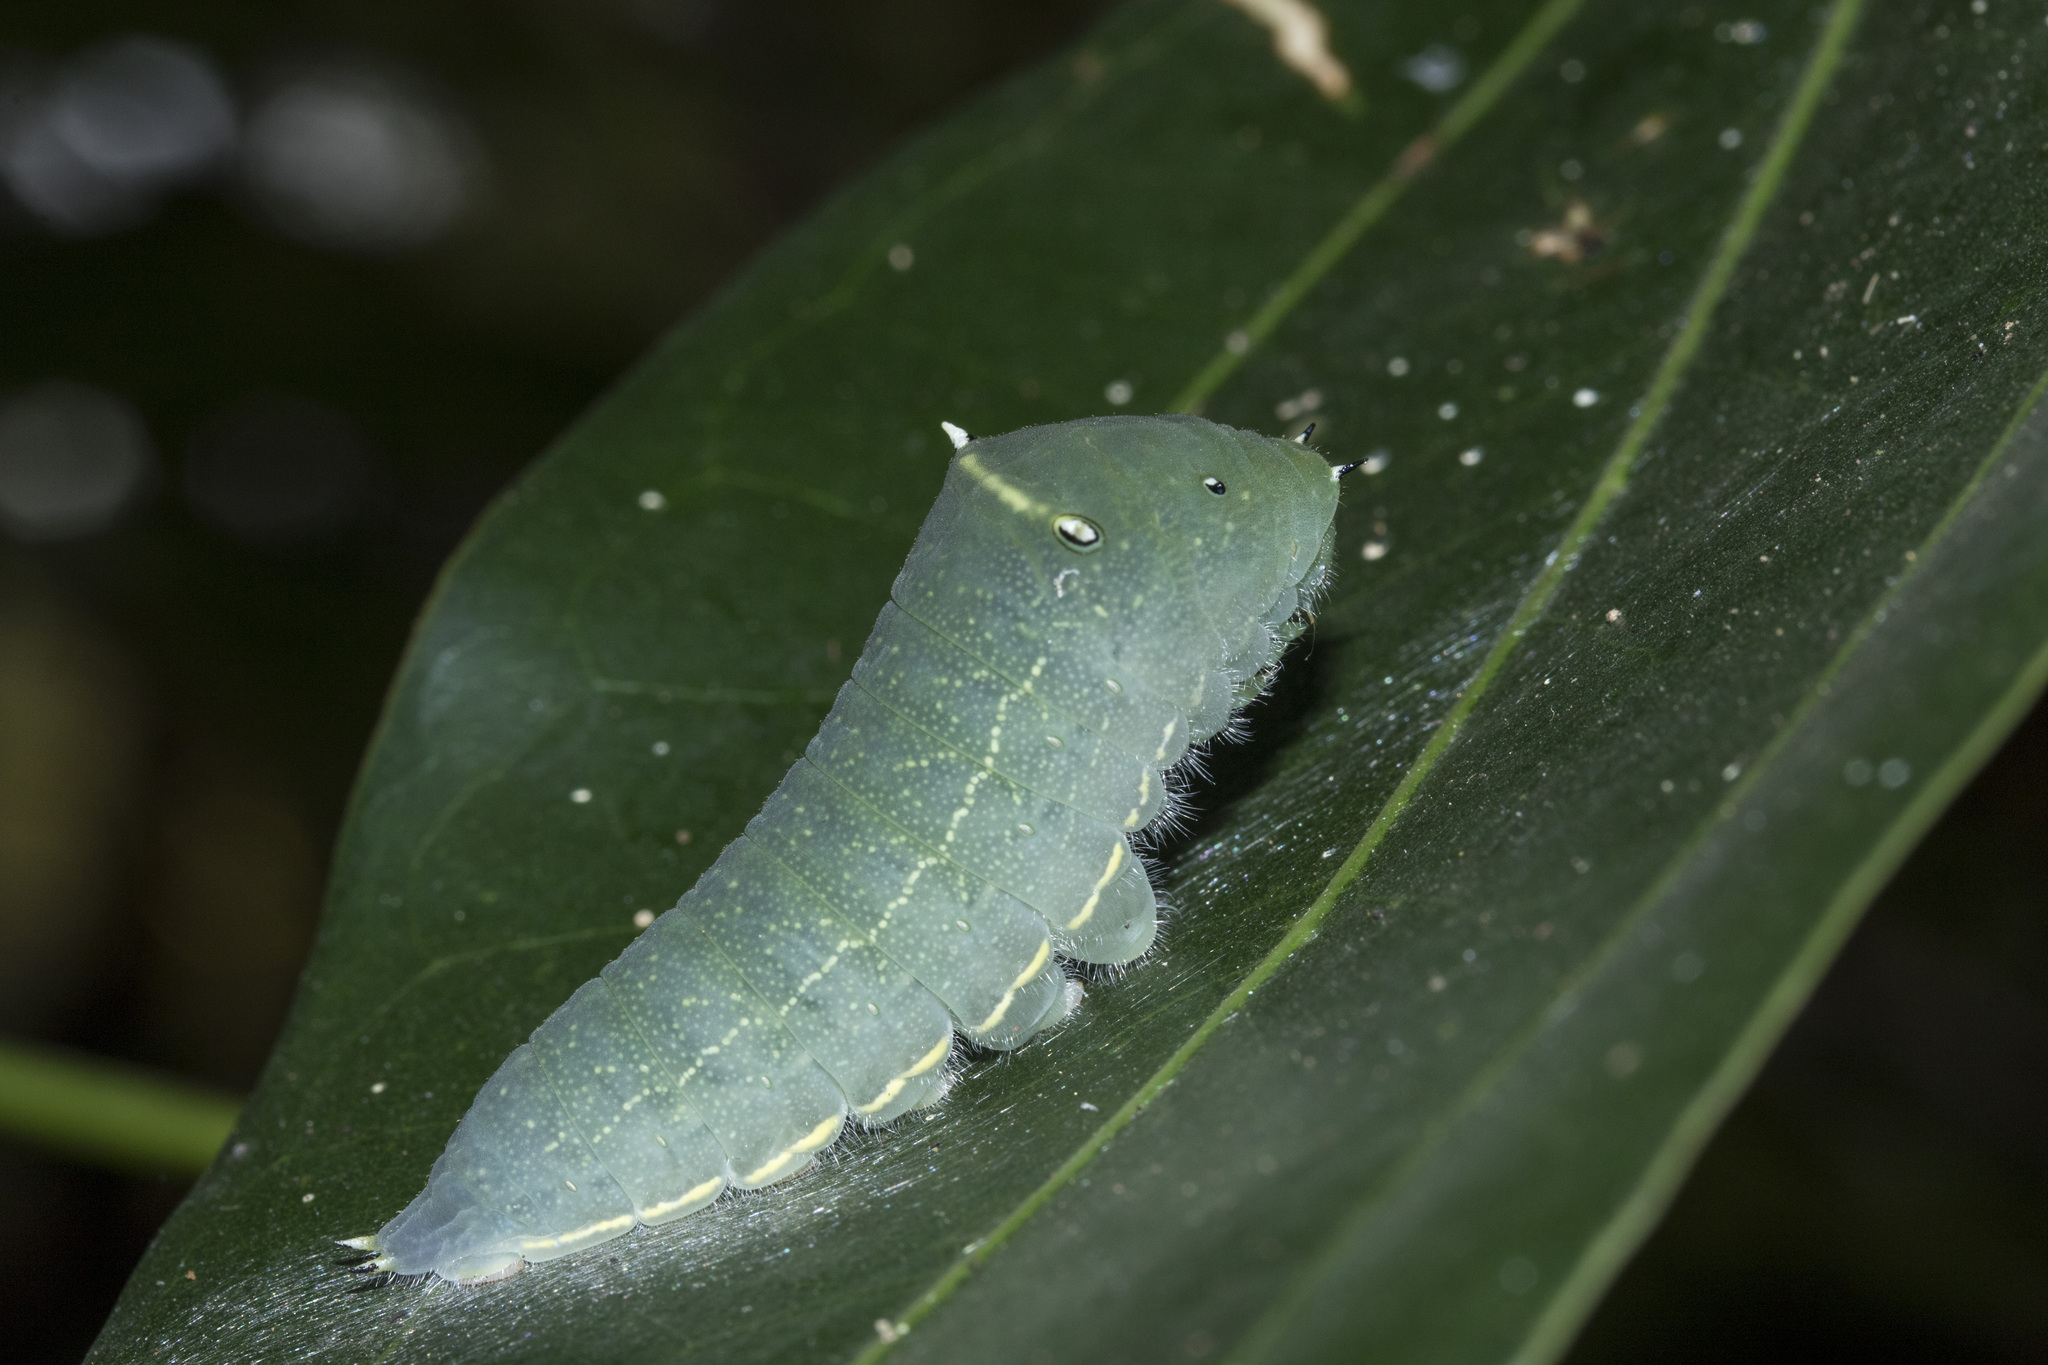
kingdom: Animalia
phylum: Arthropoda
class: Insecta
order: Lepidoptera
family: Papilionidae
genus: Graphium
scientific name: Graphium
